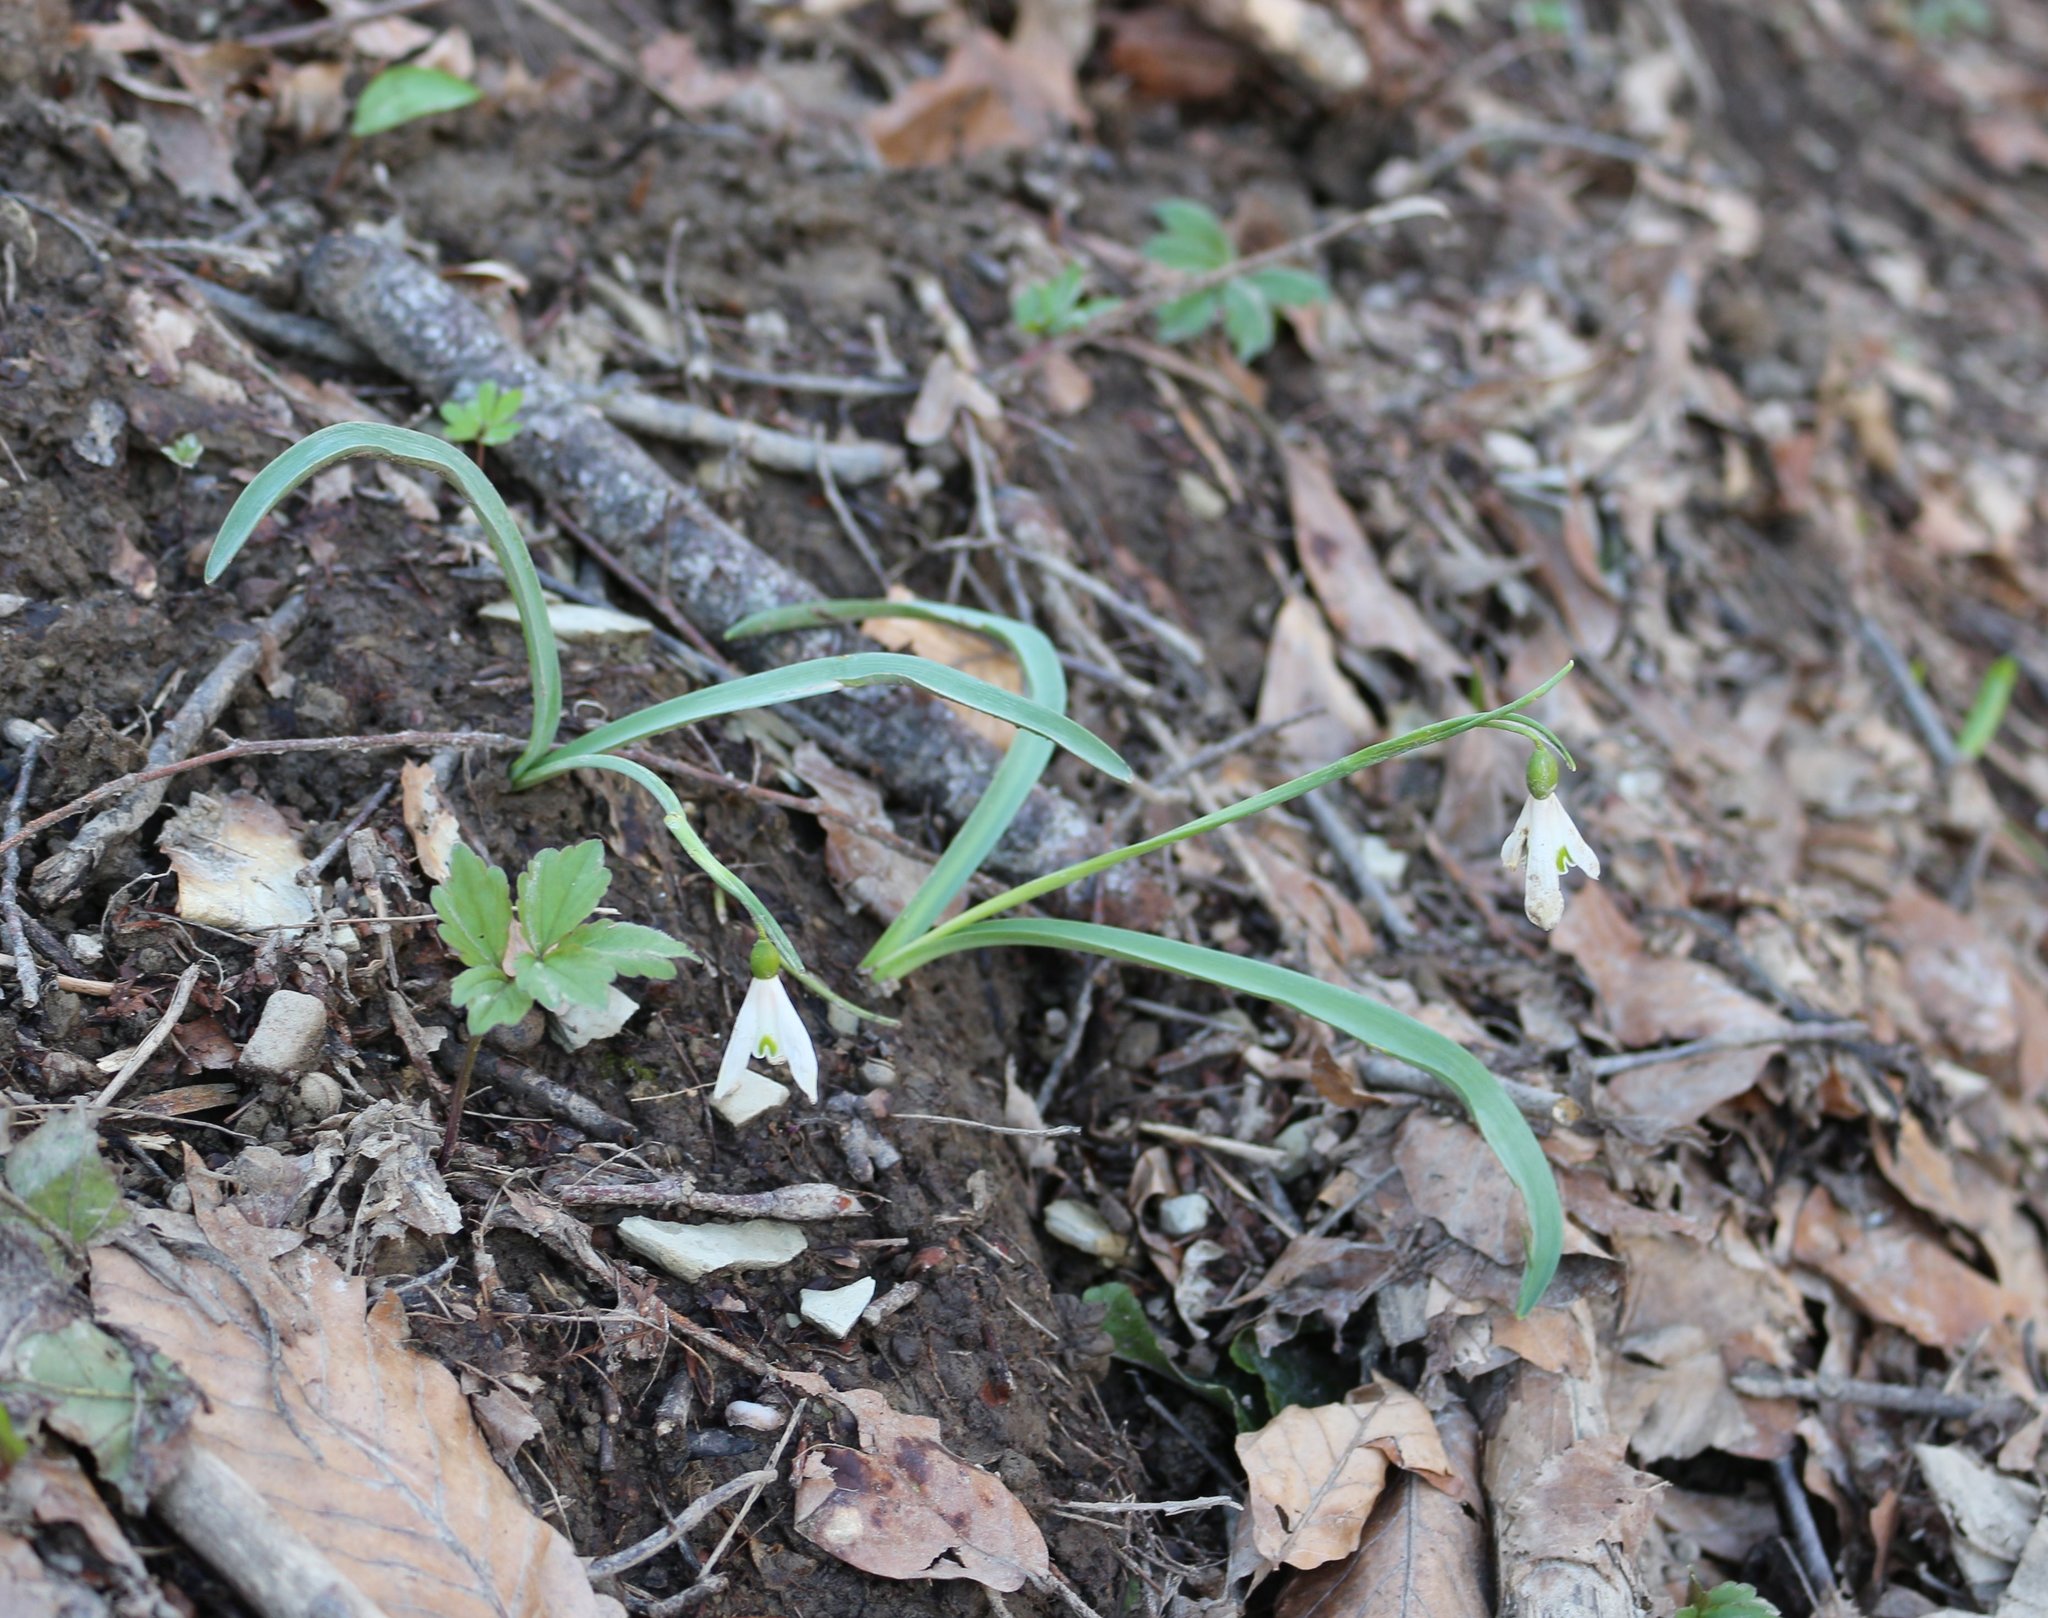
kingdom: Plantae
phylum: Tracheophyta
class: Liliopsida
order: Asparagales
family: Amaryllidaceae
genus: Galanthus
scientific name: Galanthus alpinus
